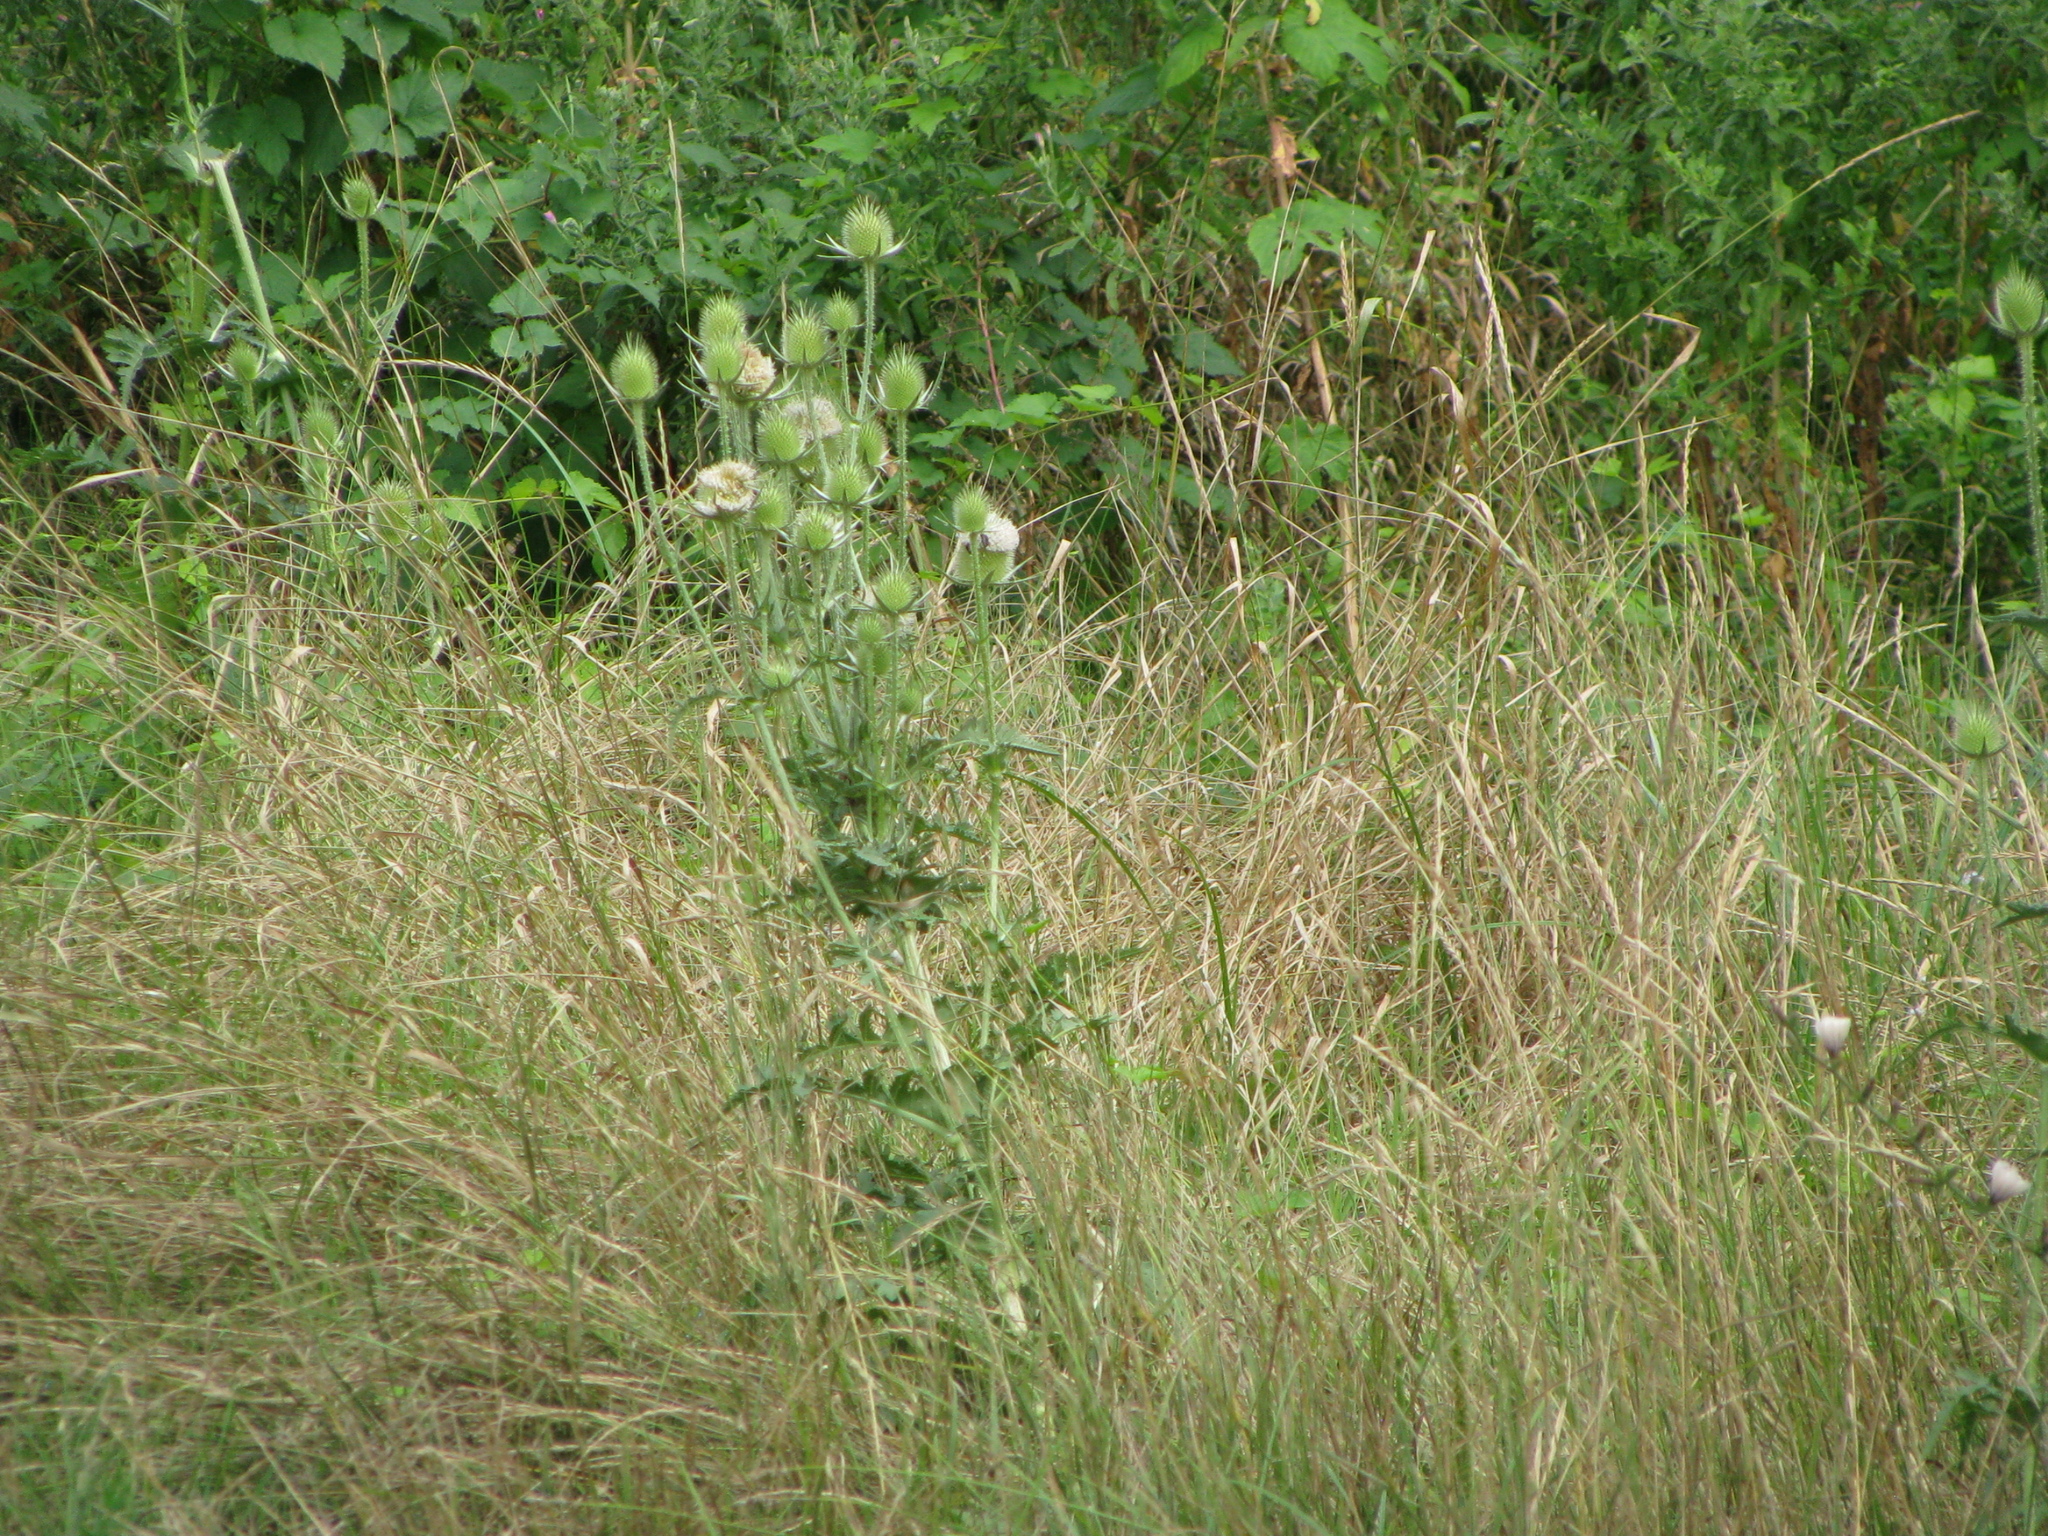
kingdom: Plantae
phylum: Tracheophyta
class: Magnoliopsida
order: Dipsacales
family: Caprifoliaceae
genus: Dipsacus
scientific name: Dipsacus laciniatus
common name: Cut-leaved teasel
